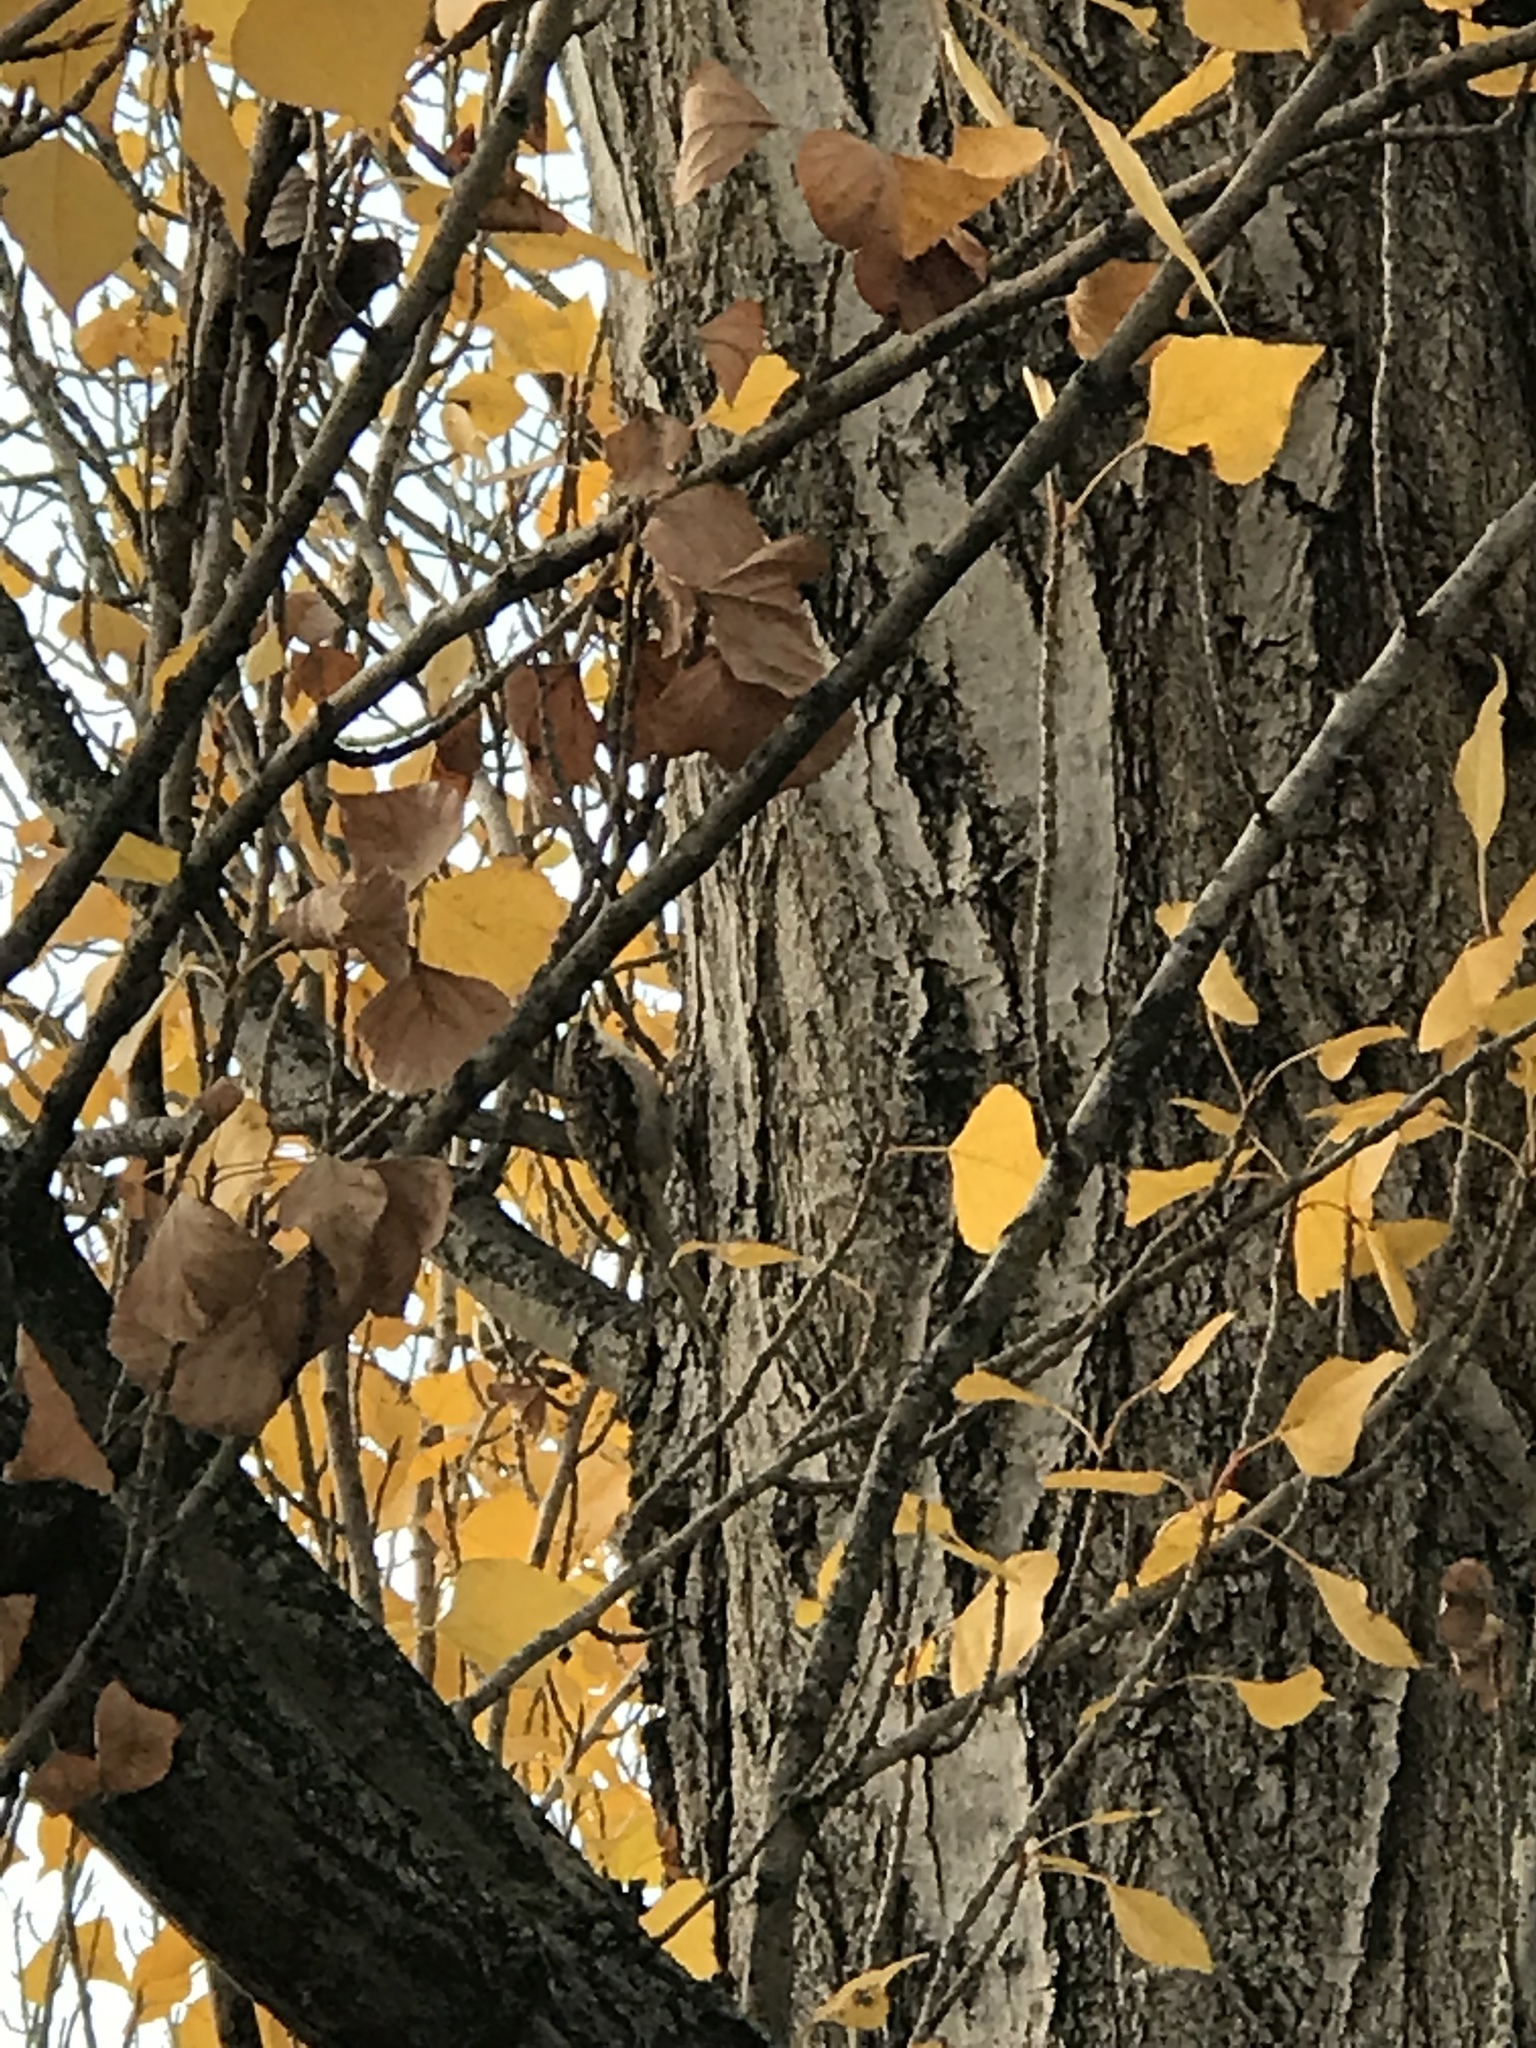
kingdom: Animalia
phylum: Chordata
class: Aves
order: Passeriformes
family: Certhiidae
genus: Certhia
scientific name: Certhia americana
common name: Brown creeper
